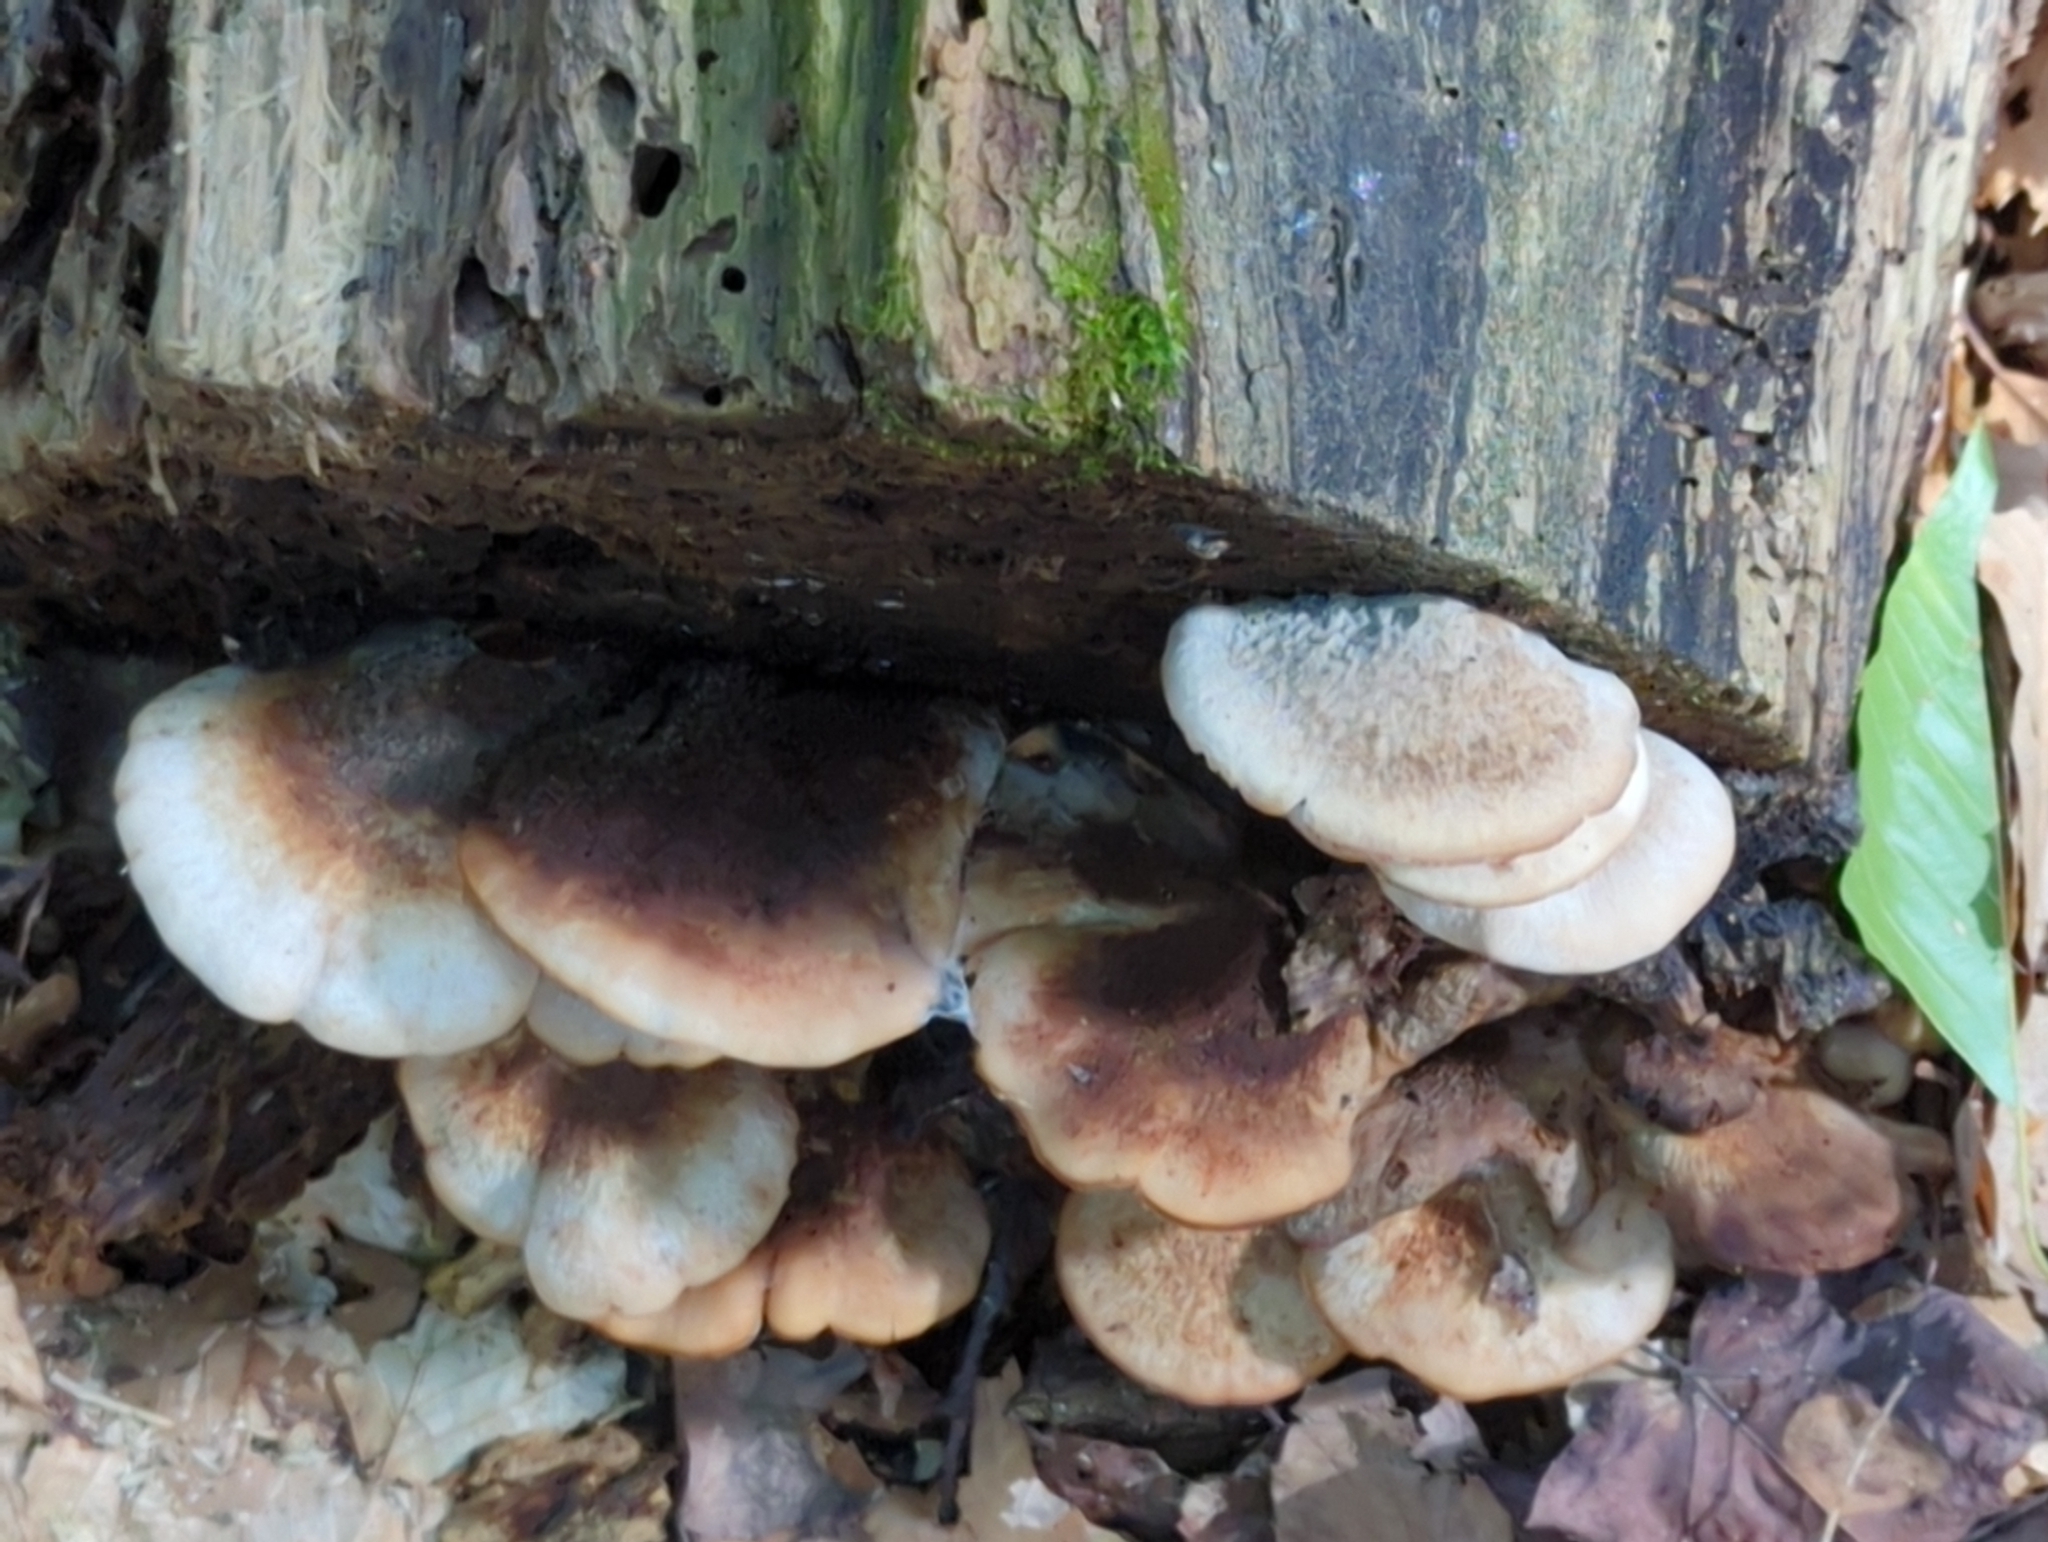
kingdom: Fungi
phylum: Basidiomycota
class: Agaricomycetes
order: Russulales
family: Auriscalpiaceae
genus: Lentinellus
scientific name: Lentinellus ursinus
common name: Bear lentinus
